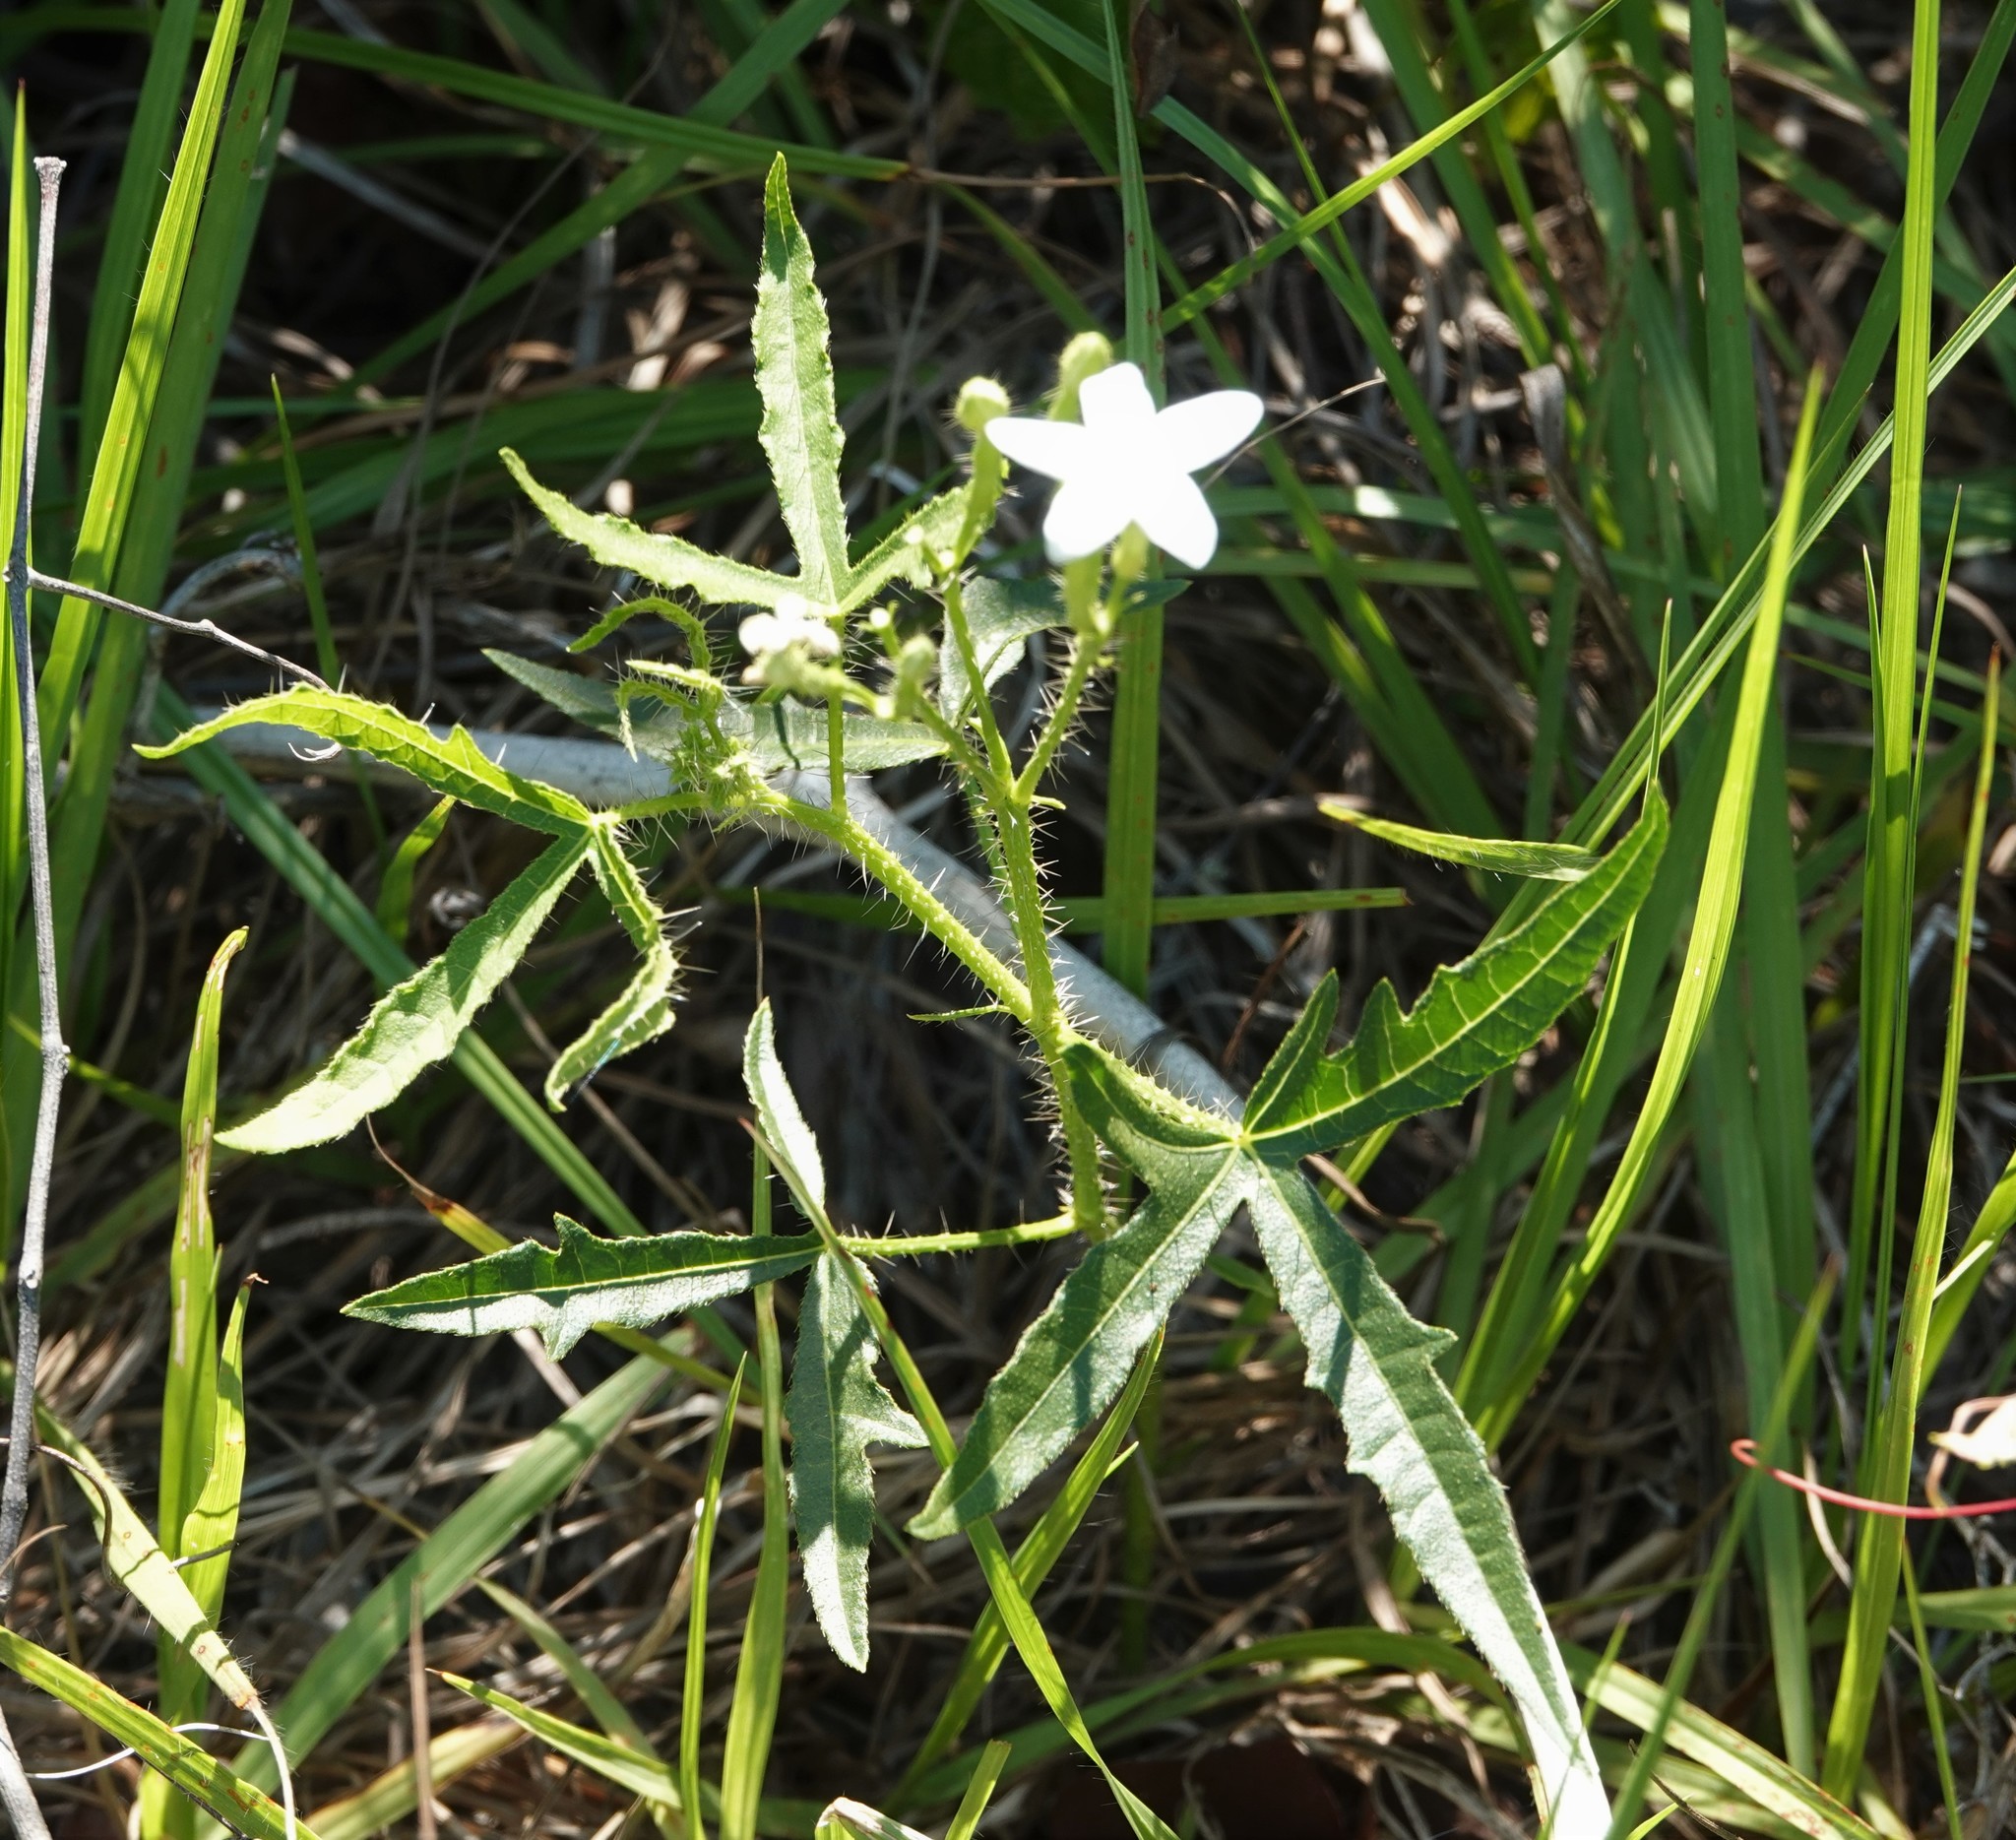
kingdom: Plantae
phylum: Tracheophyta
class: Magnoliopsida
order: Malpighiales
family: Euphorbiaceae
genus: Cnidoscolus
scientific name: Cnidoscolus stimulosus
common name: Bull-nettle
